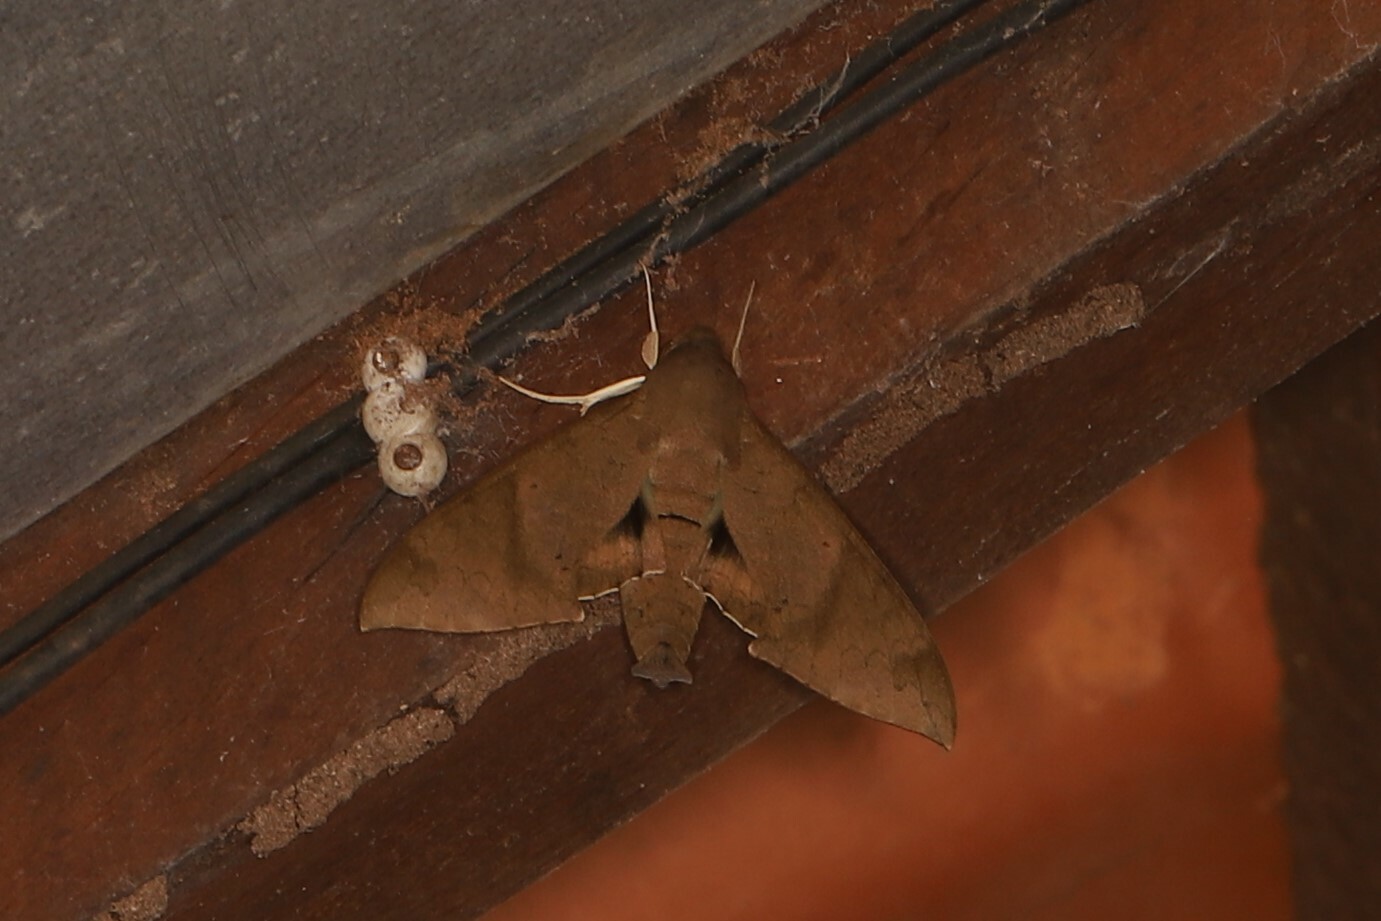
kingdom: Animalia
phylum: Arthropoda
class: Insecta
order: Lepidoptera
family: Sphingidae
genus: Pachylioides
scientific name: Pachylioides resumens
